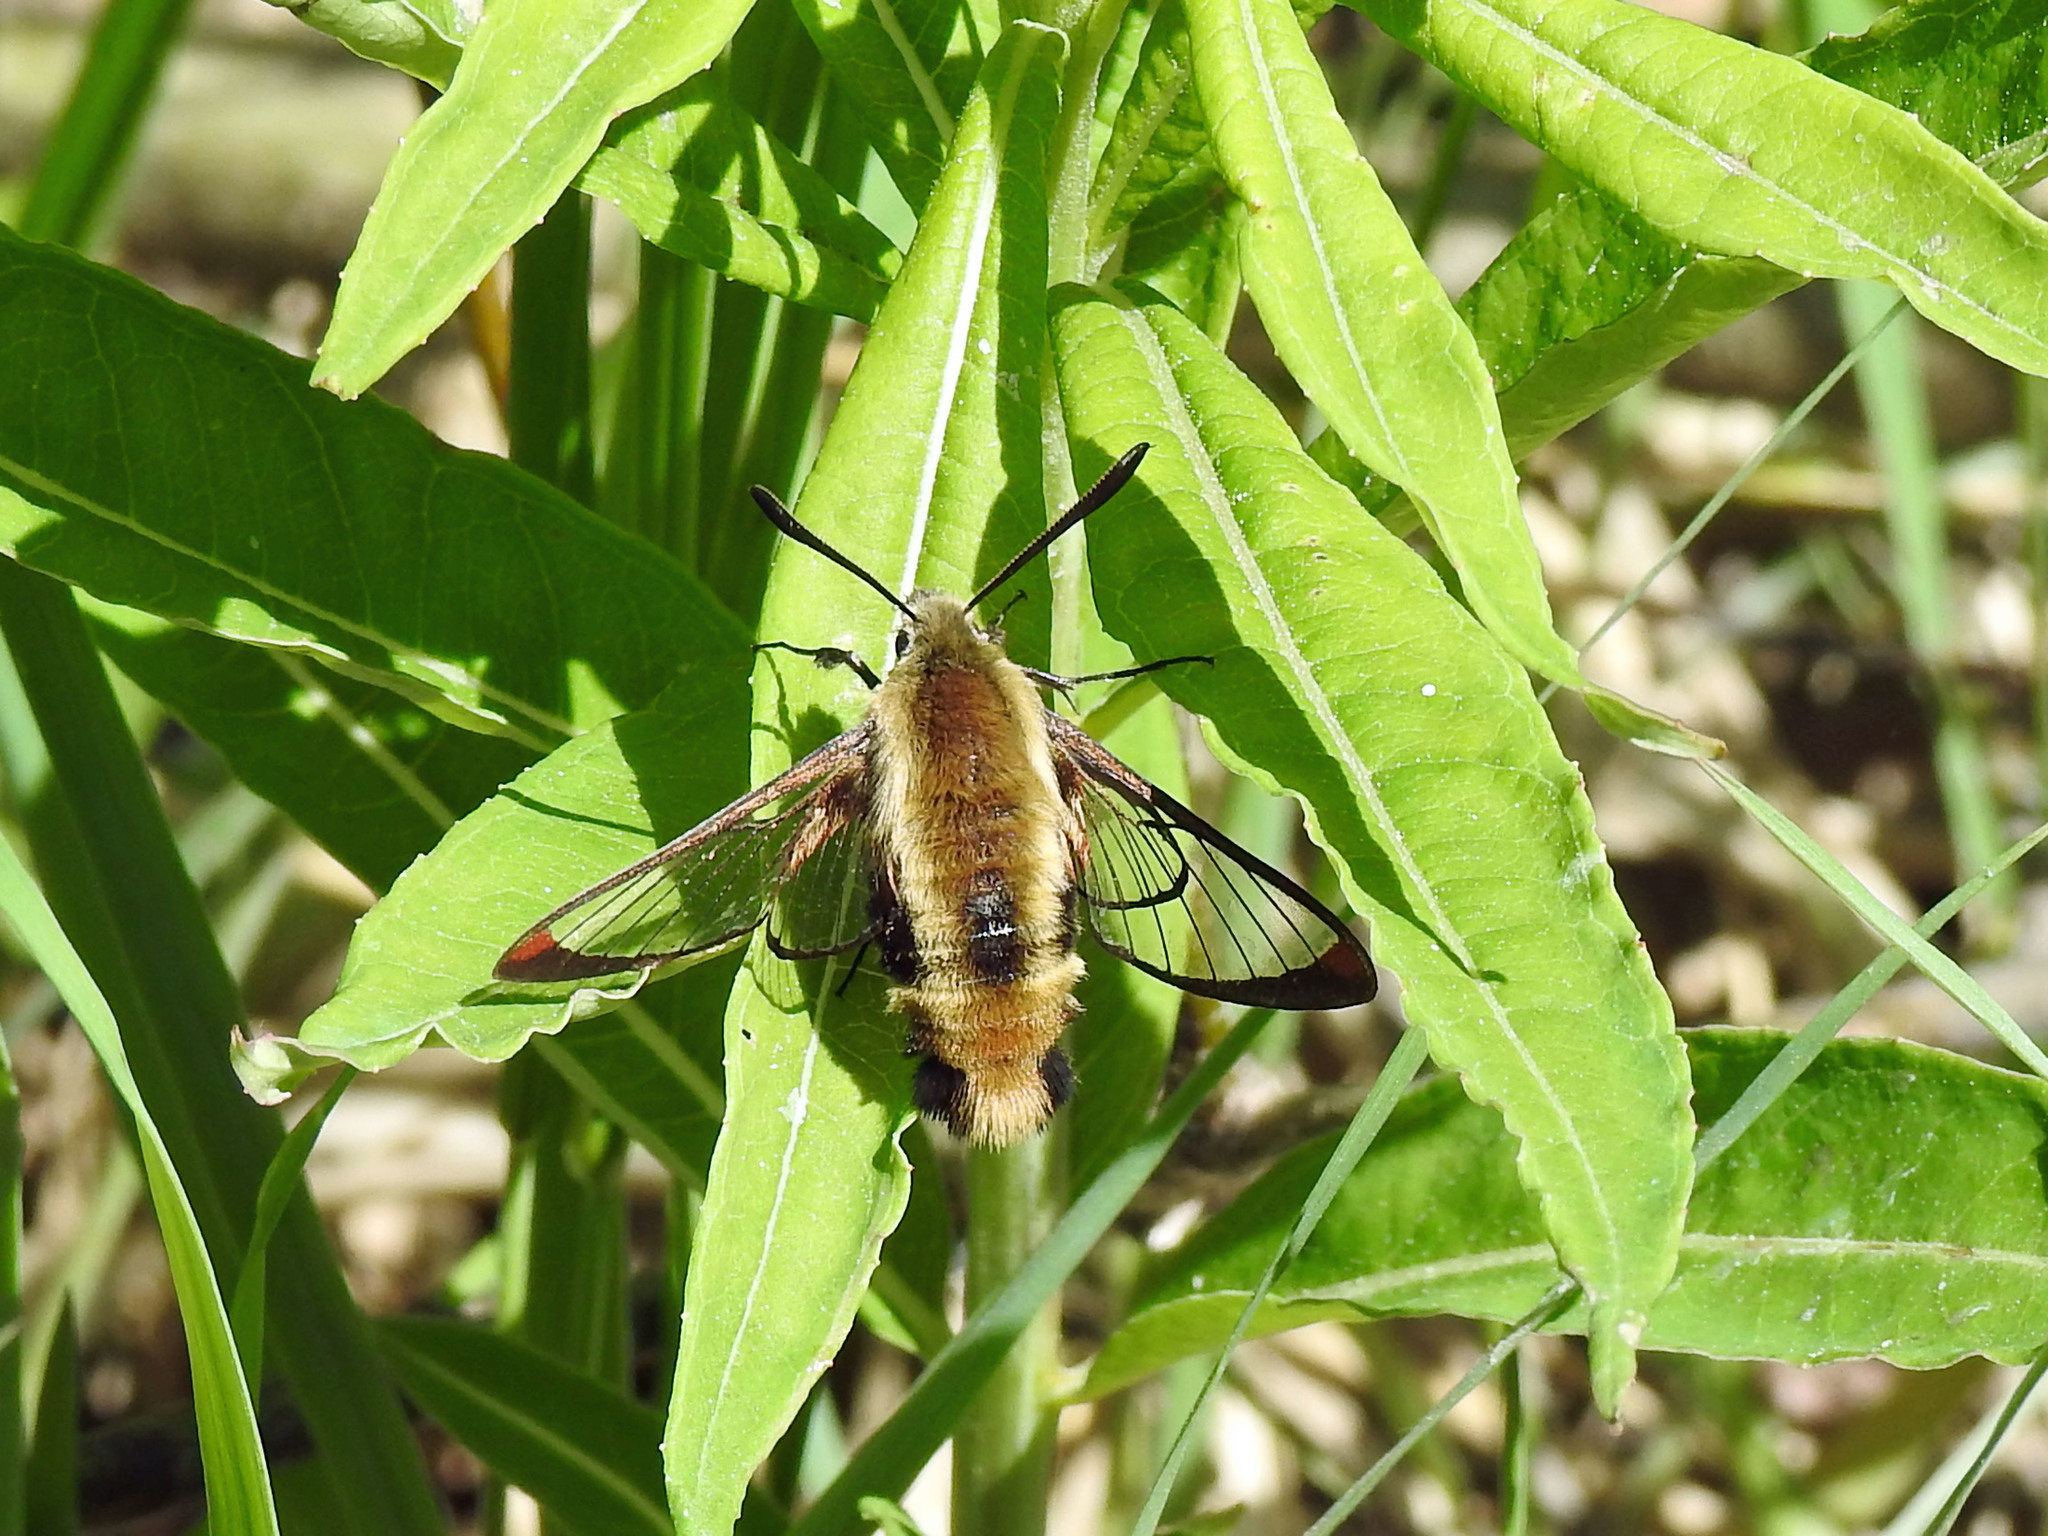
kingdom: Animalia
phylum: Arthropoda
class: Insecta
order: Lepidoptera
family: Sphingidae
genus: Hemaris
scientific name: Hemaris diffinis
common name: Bumblebee moth
